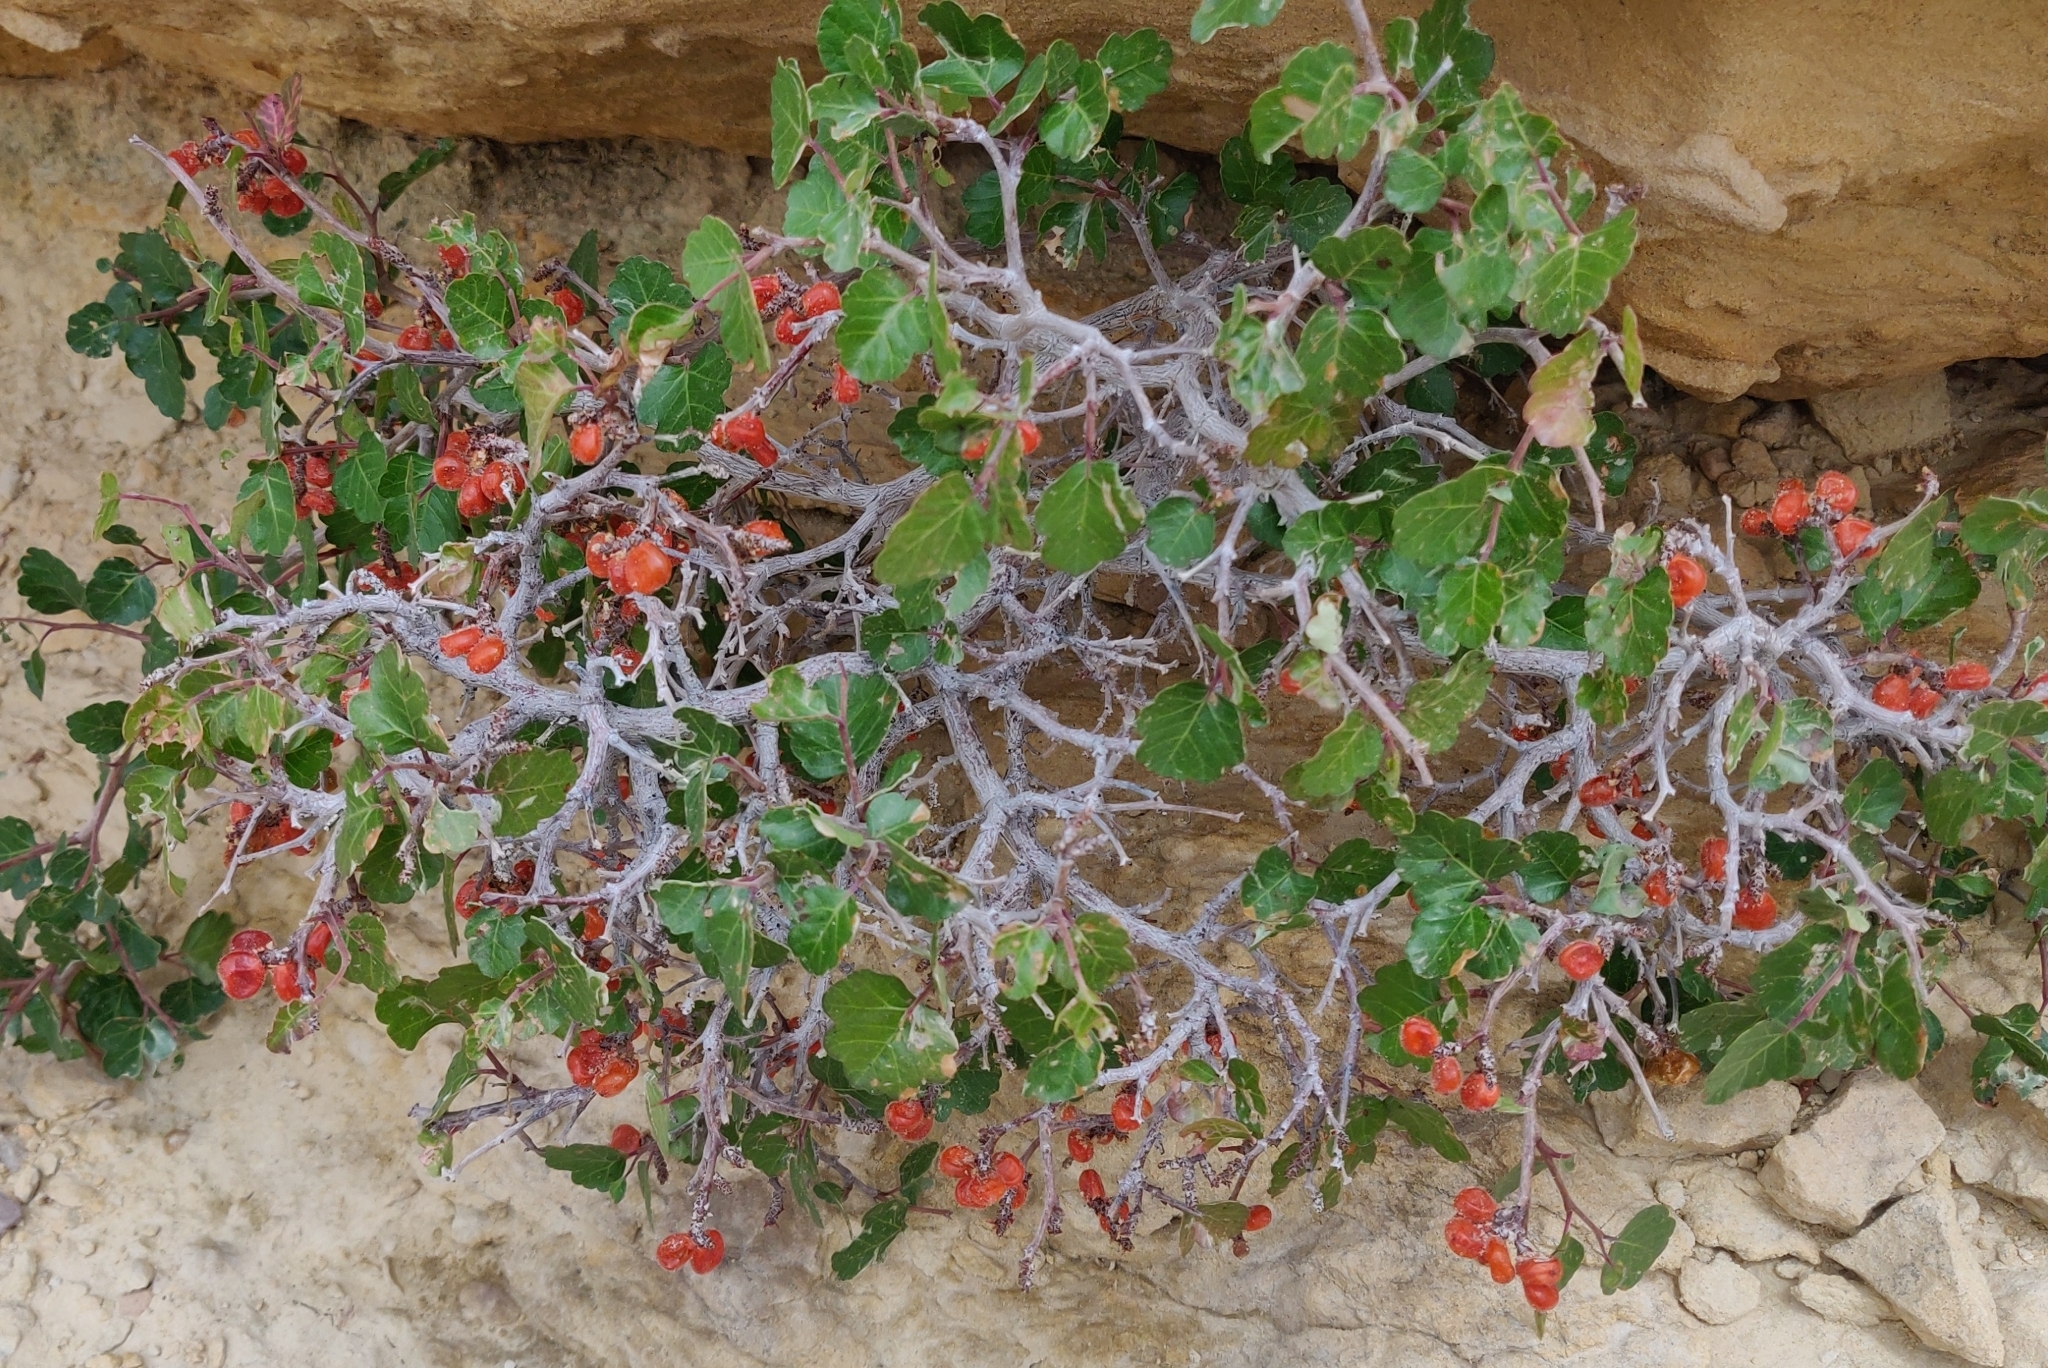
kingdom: Plantae
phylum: Tracheophyta
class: Magnoliopsida
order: Sapindales
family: Anacardiaceae
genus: Rhus
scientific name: Rhus aromatica
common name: Aromatic sumac
